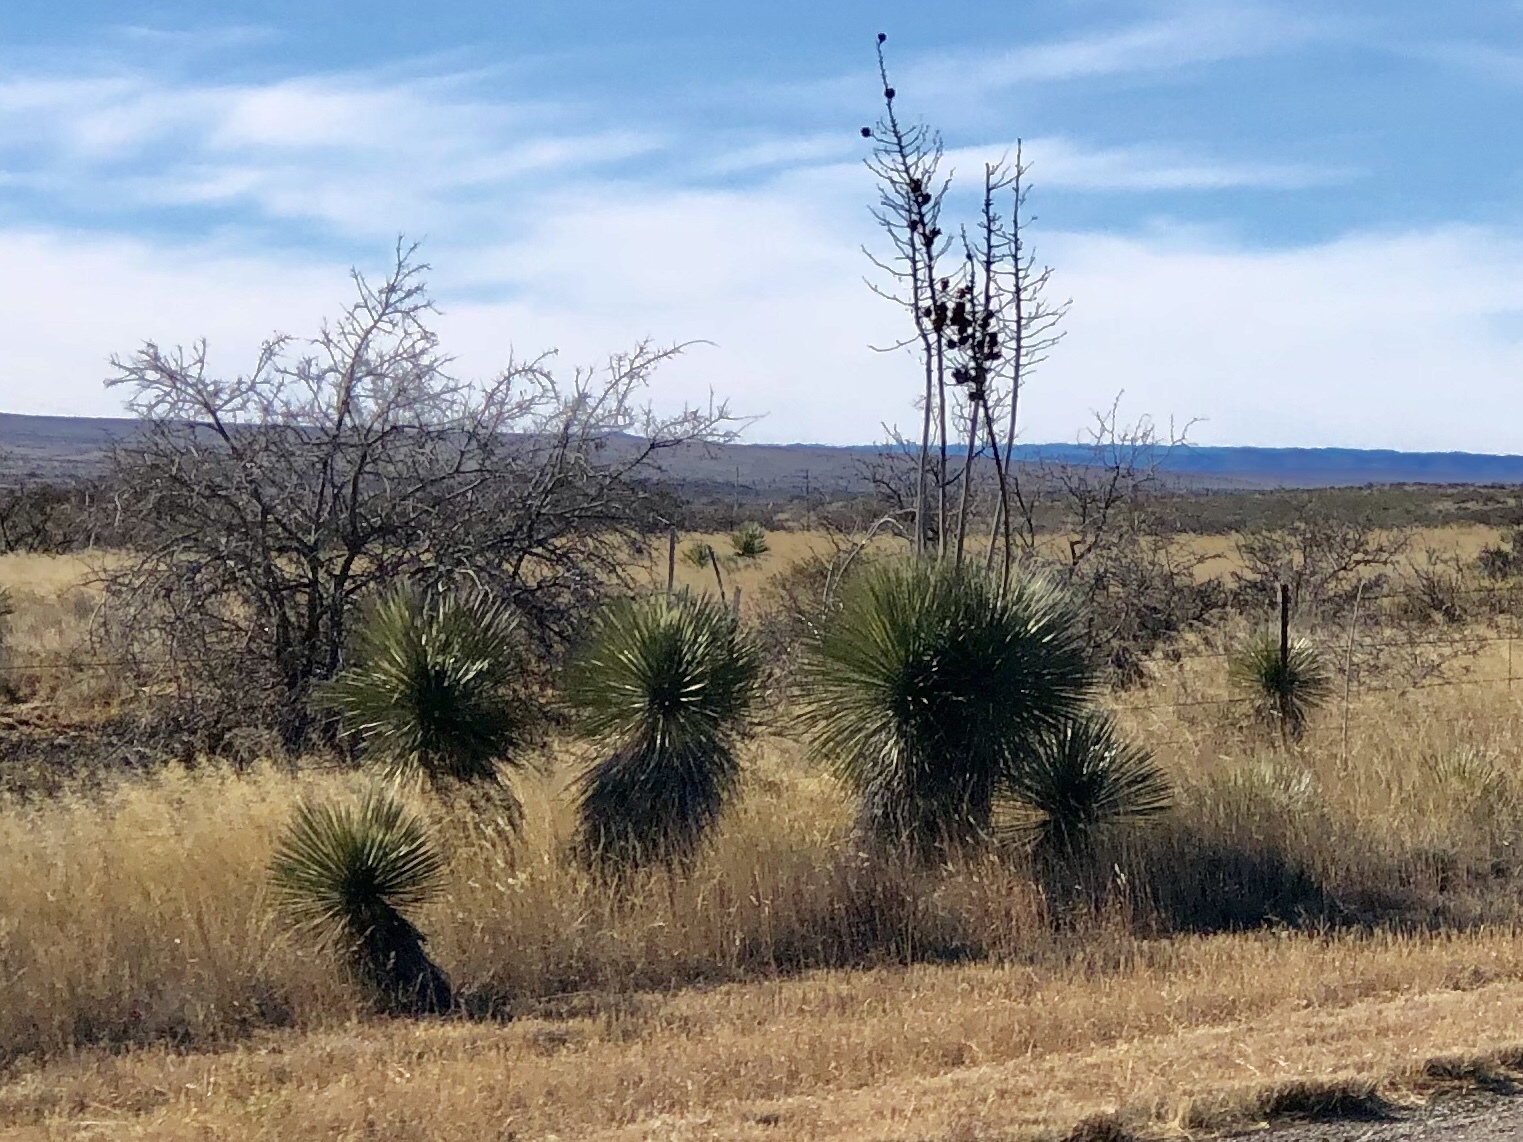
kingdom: Plantae
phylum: Tracheophyta
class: Liliopsida
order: Asparagales
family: Asparagaceae
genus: Yucca
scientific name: Yucca elata
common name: Palmella
